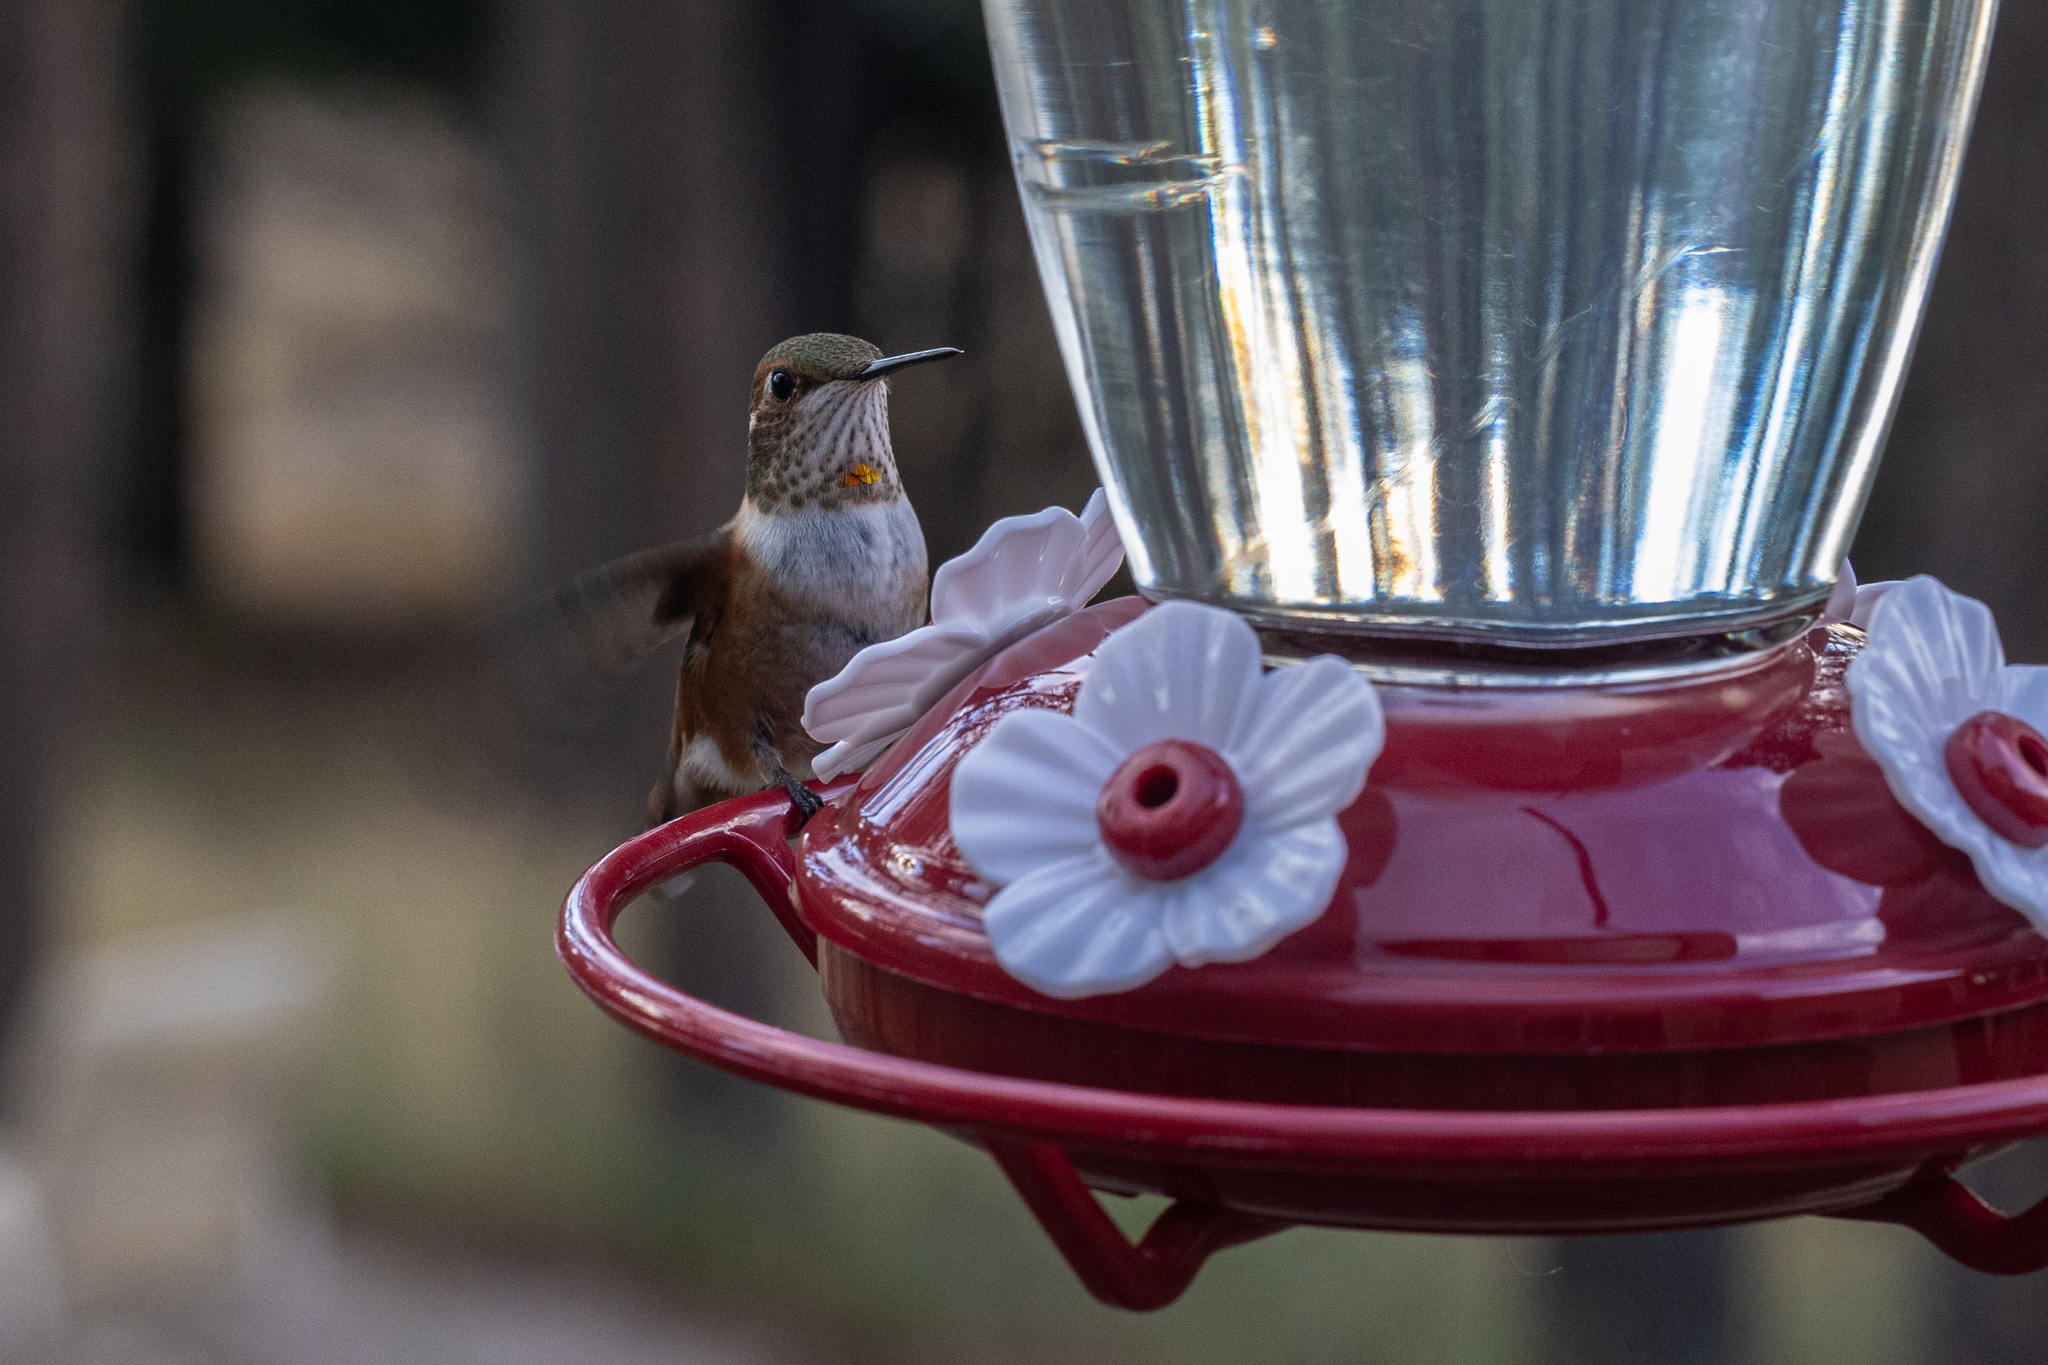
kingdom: Animalia
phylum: Chordata
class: Aves
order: Apodiformes
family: Trochilidae
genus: Selasphorus
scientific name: Selasphorus rufus
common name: Rufous hummingbird
